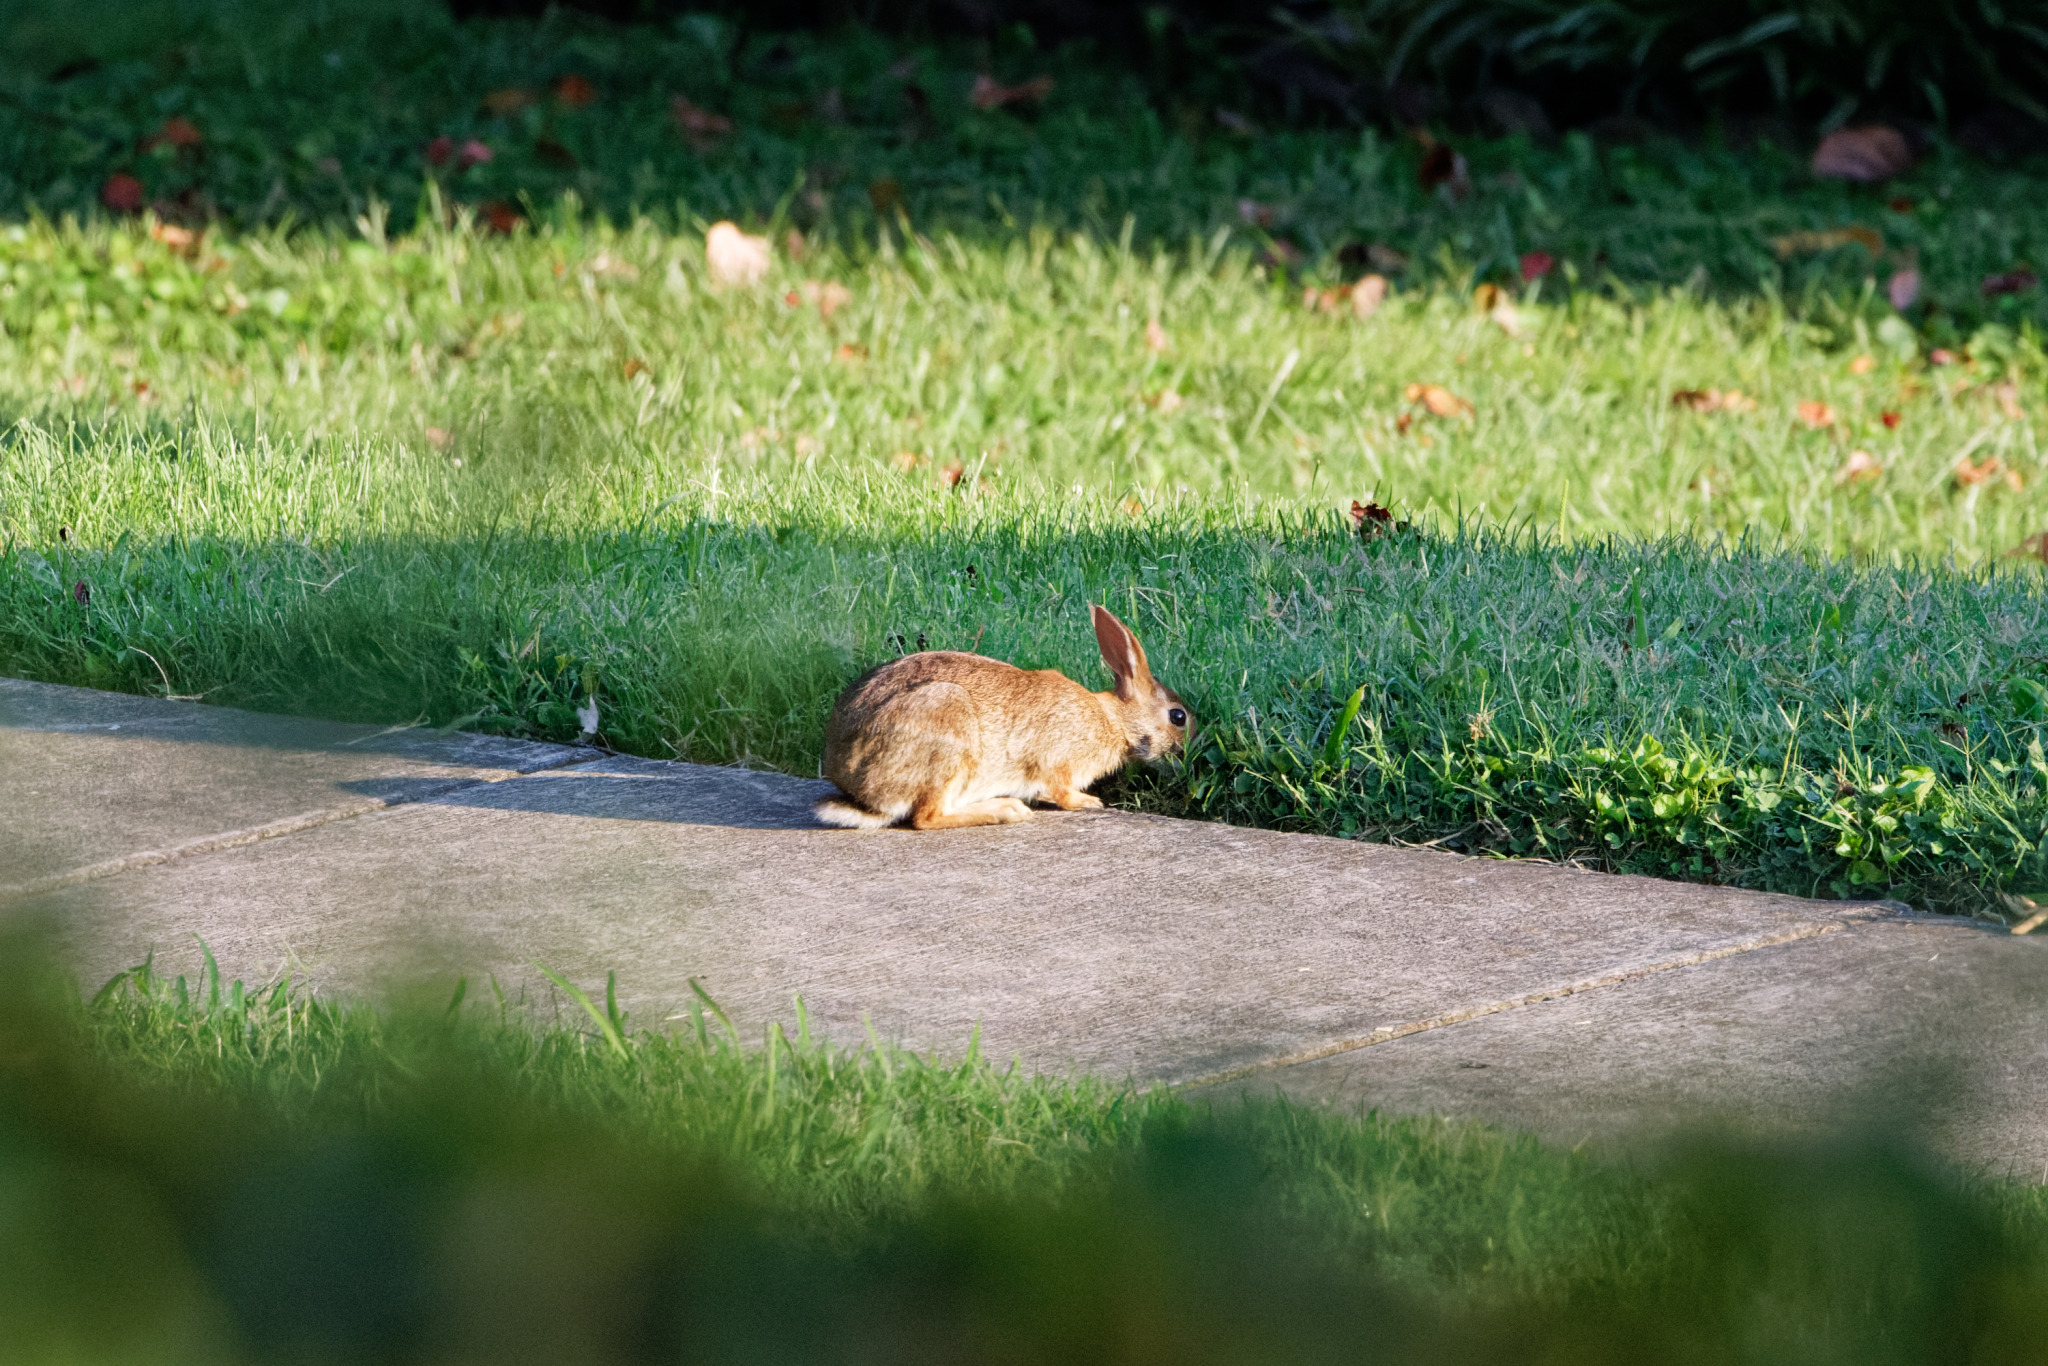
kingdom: Animalia
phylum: Chordata
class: Mammalia
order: Lagomorpha
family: Leporidae
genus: Sylvilagus
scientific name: Sylvilagus floridanus
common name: Eastern cottontail
